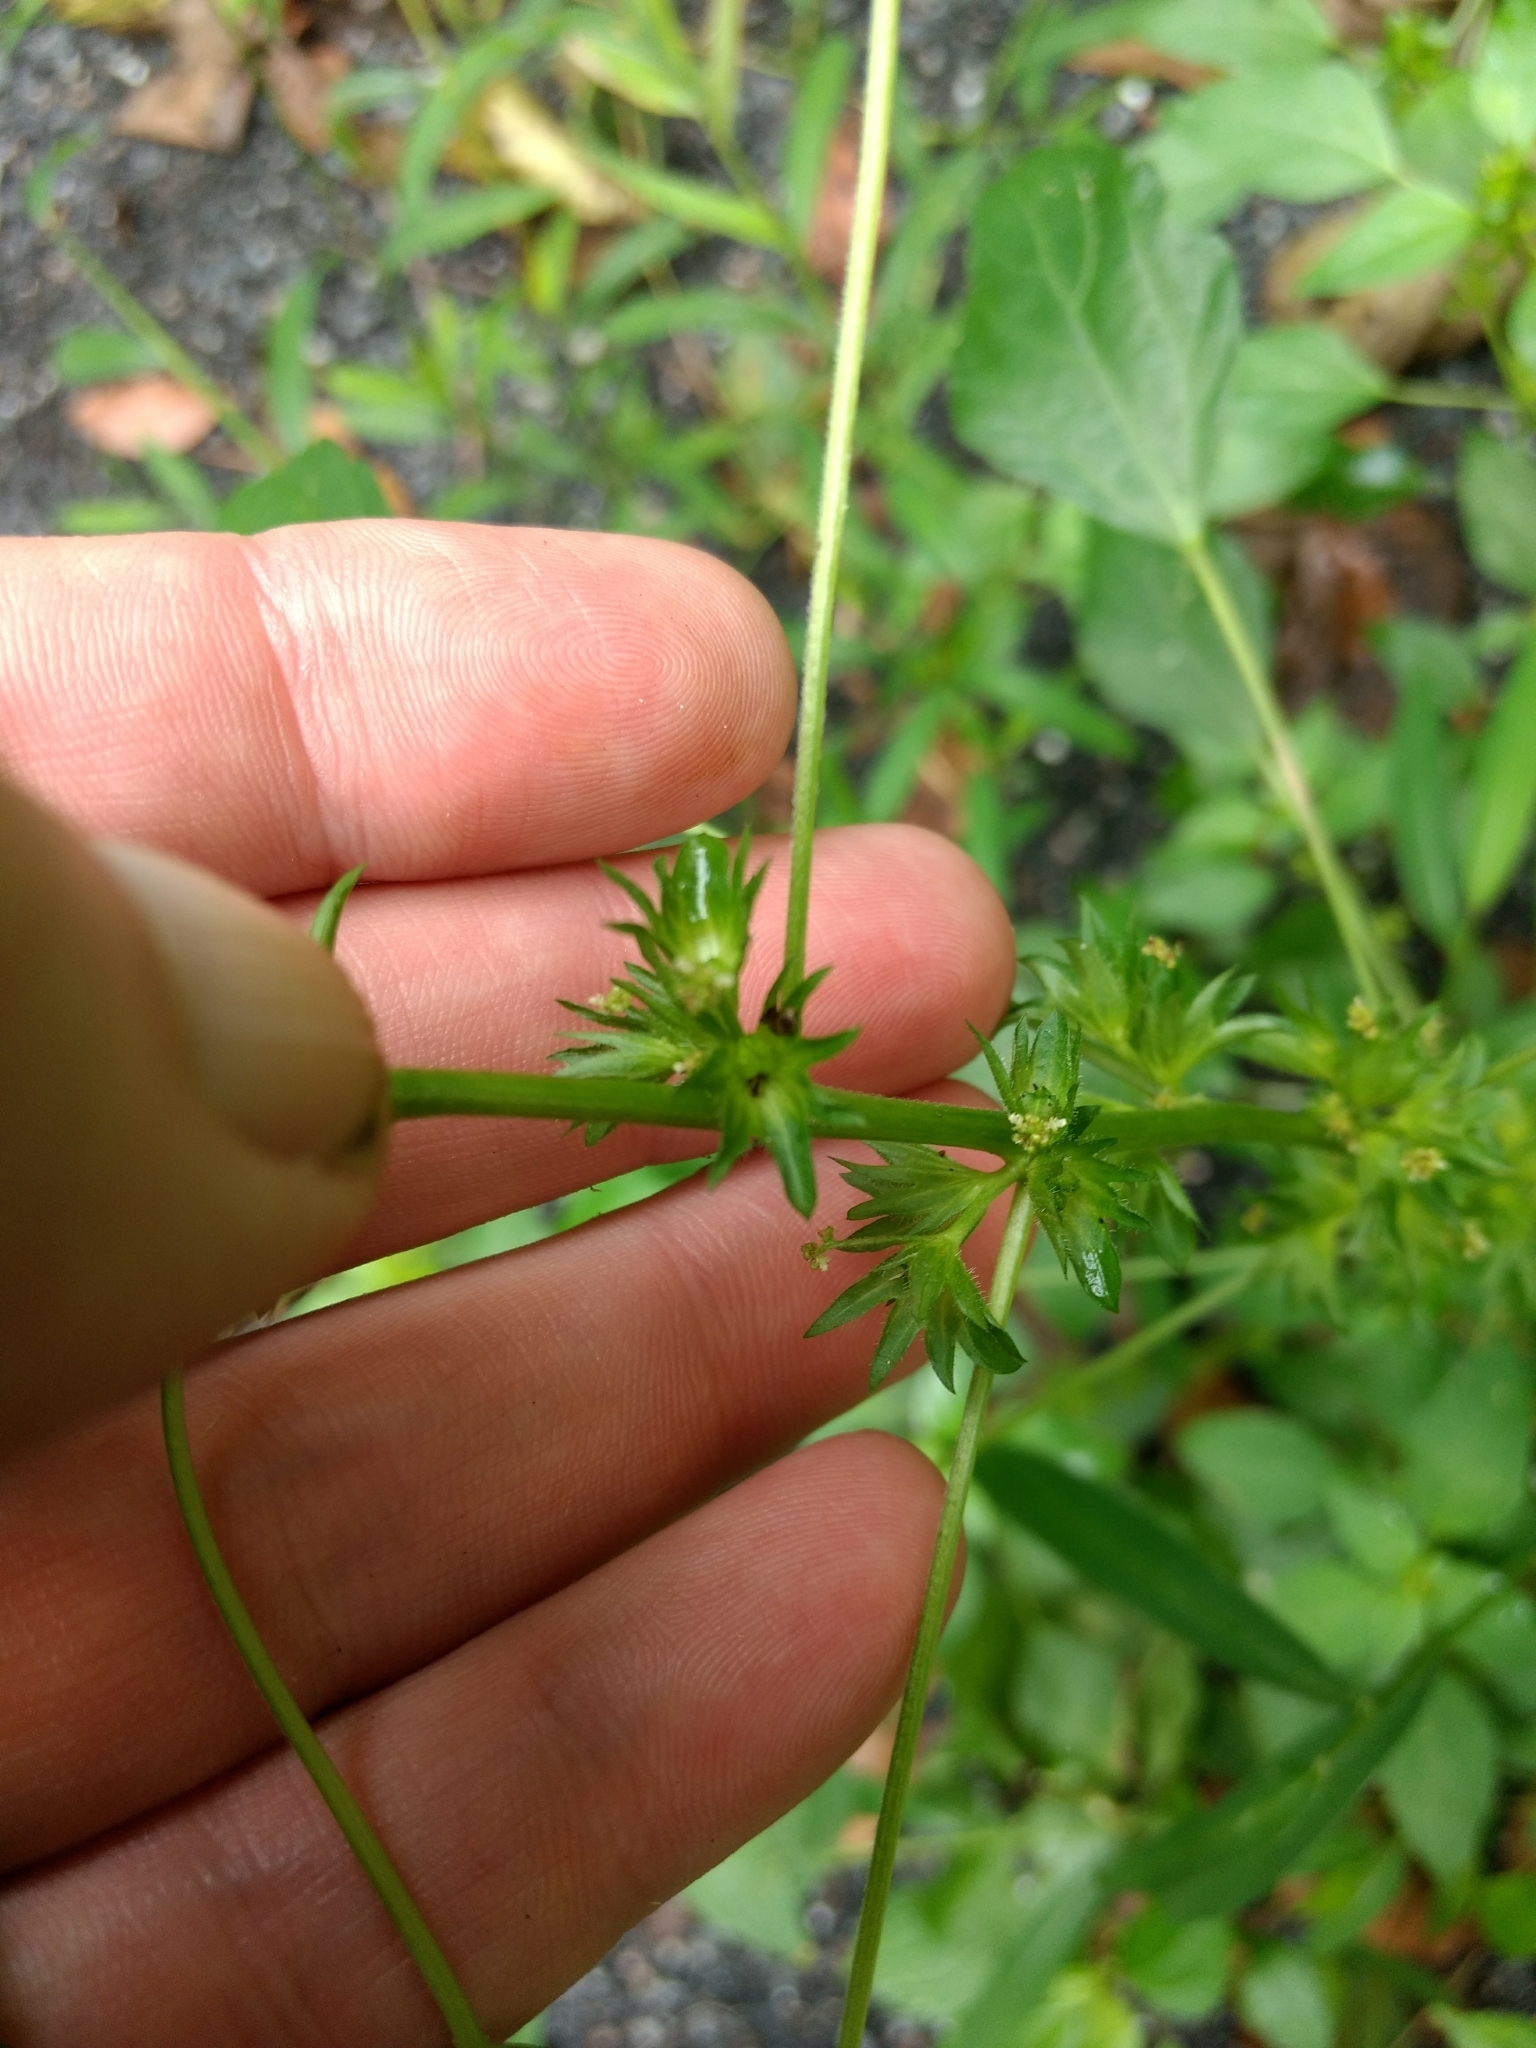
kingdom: Plantae
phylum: Tracheophyta
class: Magnoliopsida
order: Malpighiales
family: Euphorbiaceae
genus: Acalypha
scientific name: Acalypha rhomboidea
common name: Rhombic copperleaf
